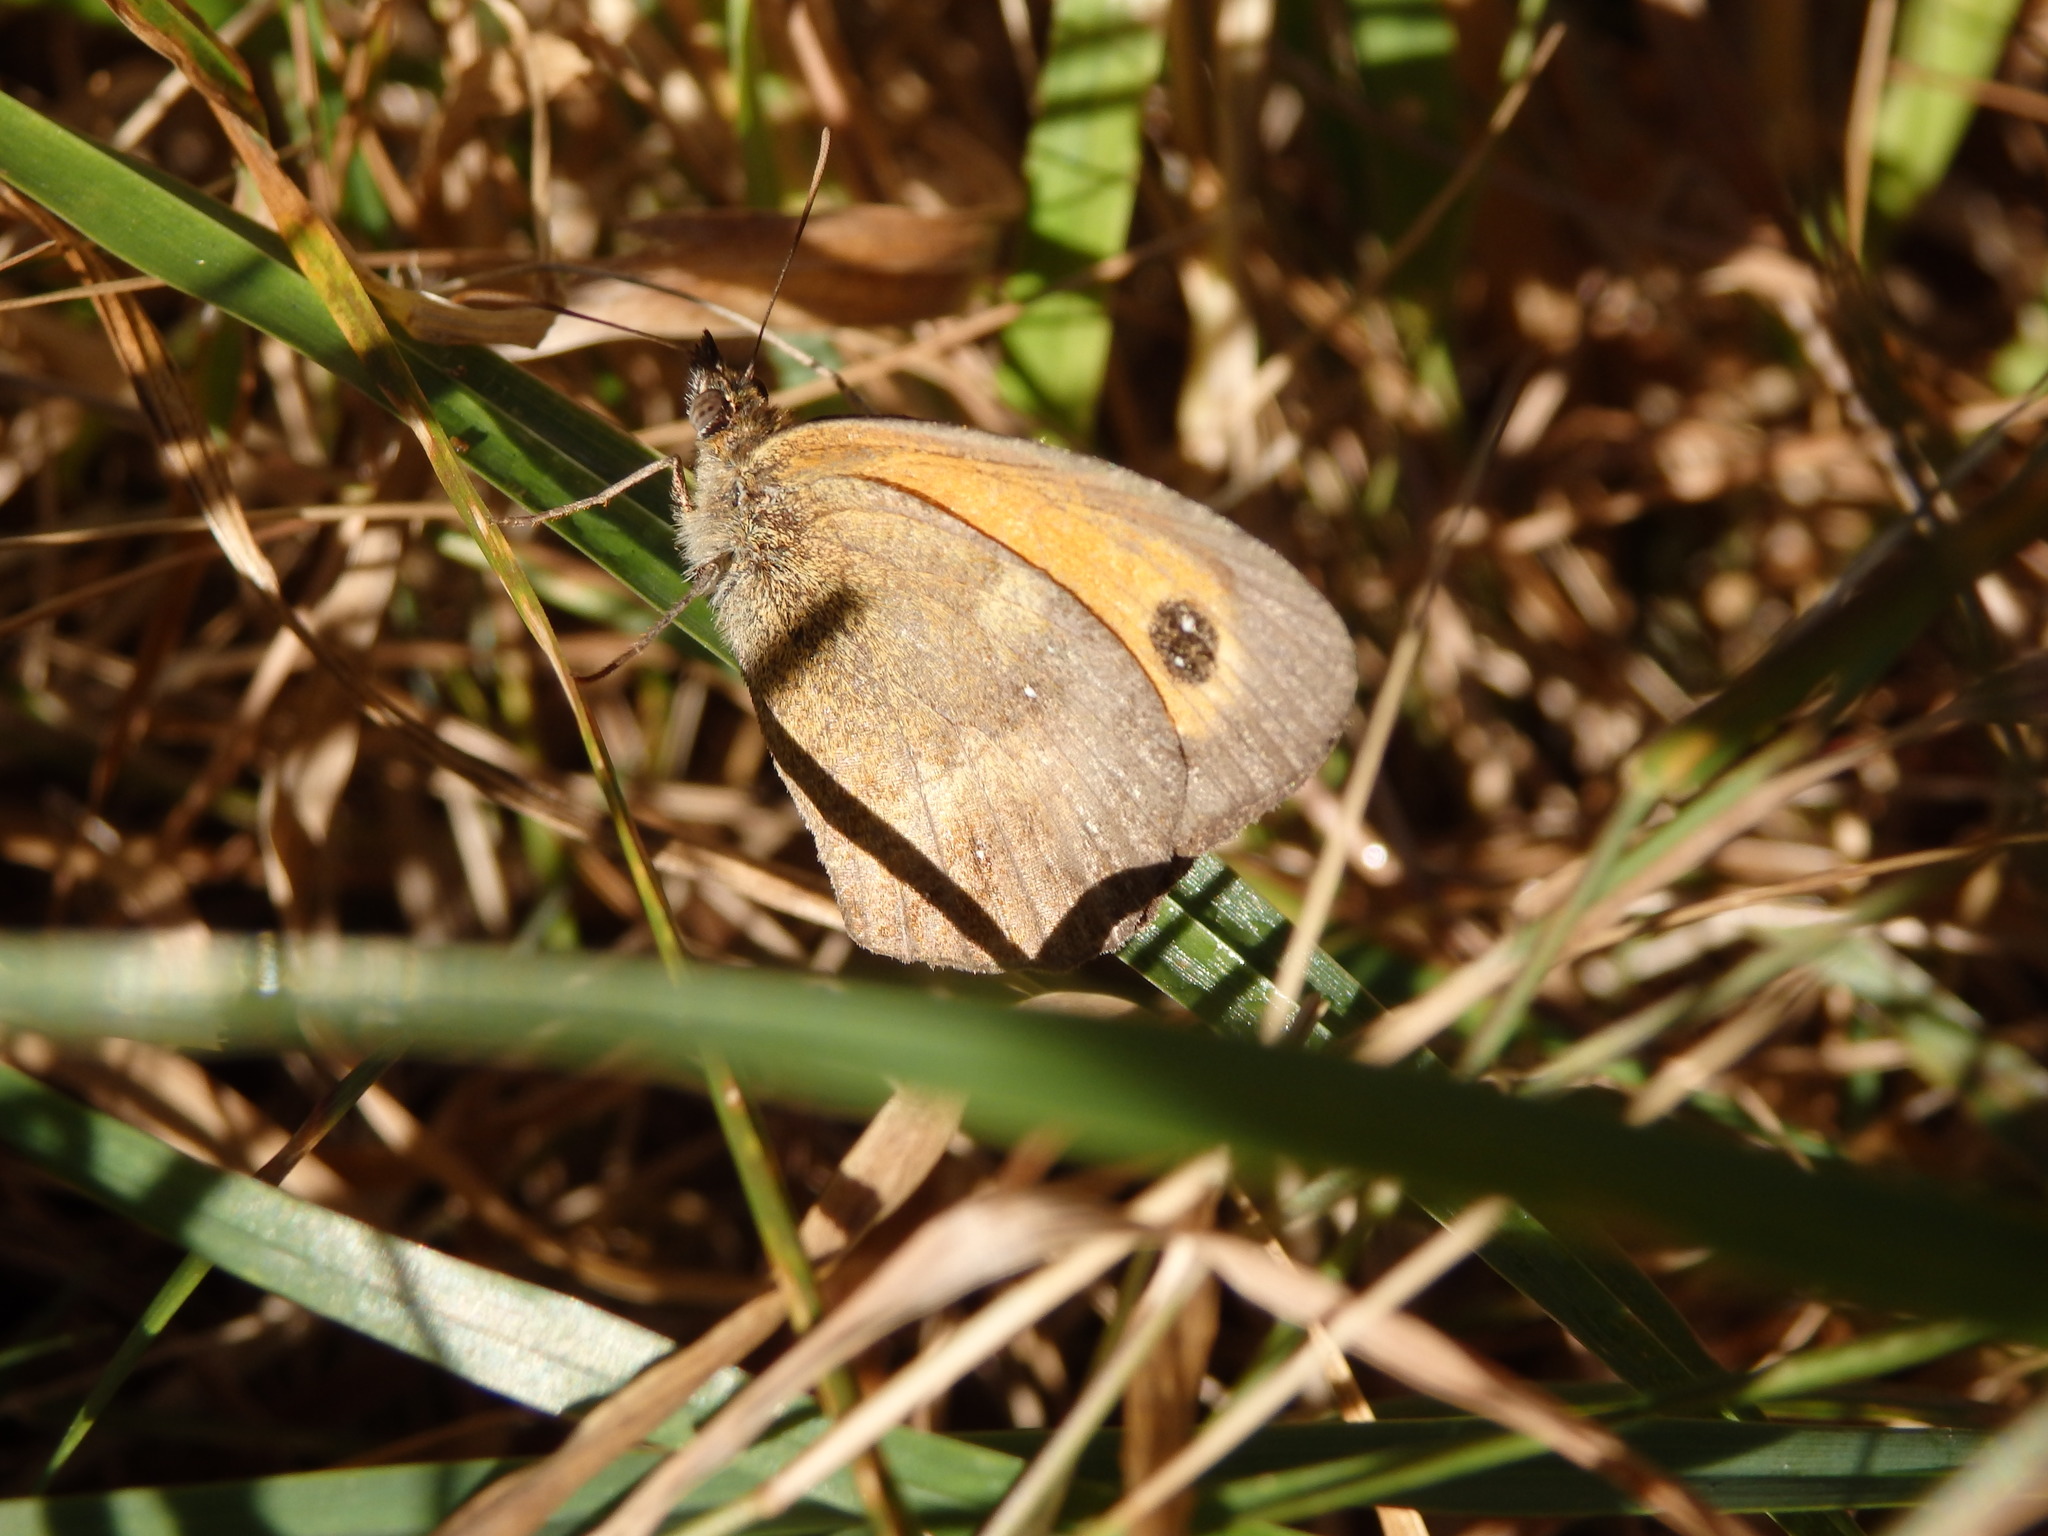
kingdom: Animalia
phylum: Arthropoda
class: Insecta
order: Lepidoptera
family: Nymphalidae
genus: Pyronia
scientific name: Pyronia tithonus
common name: Gatekeeper
